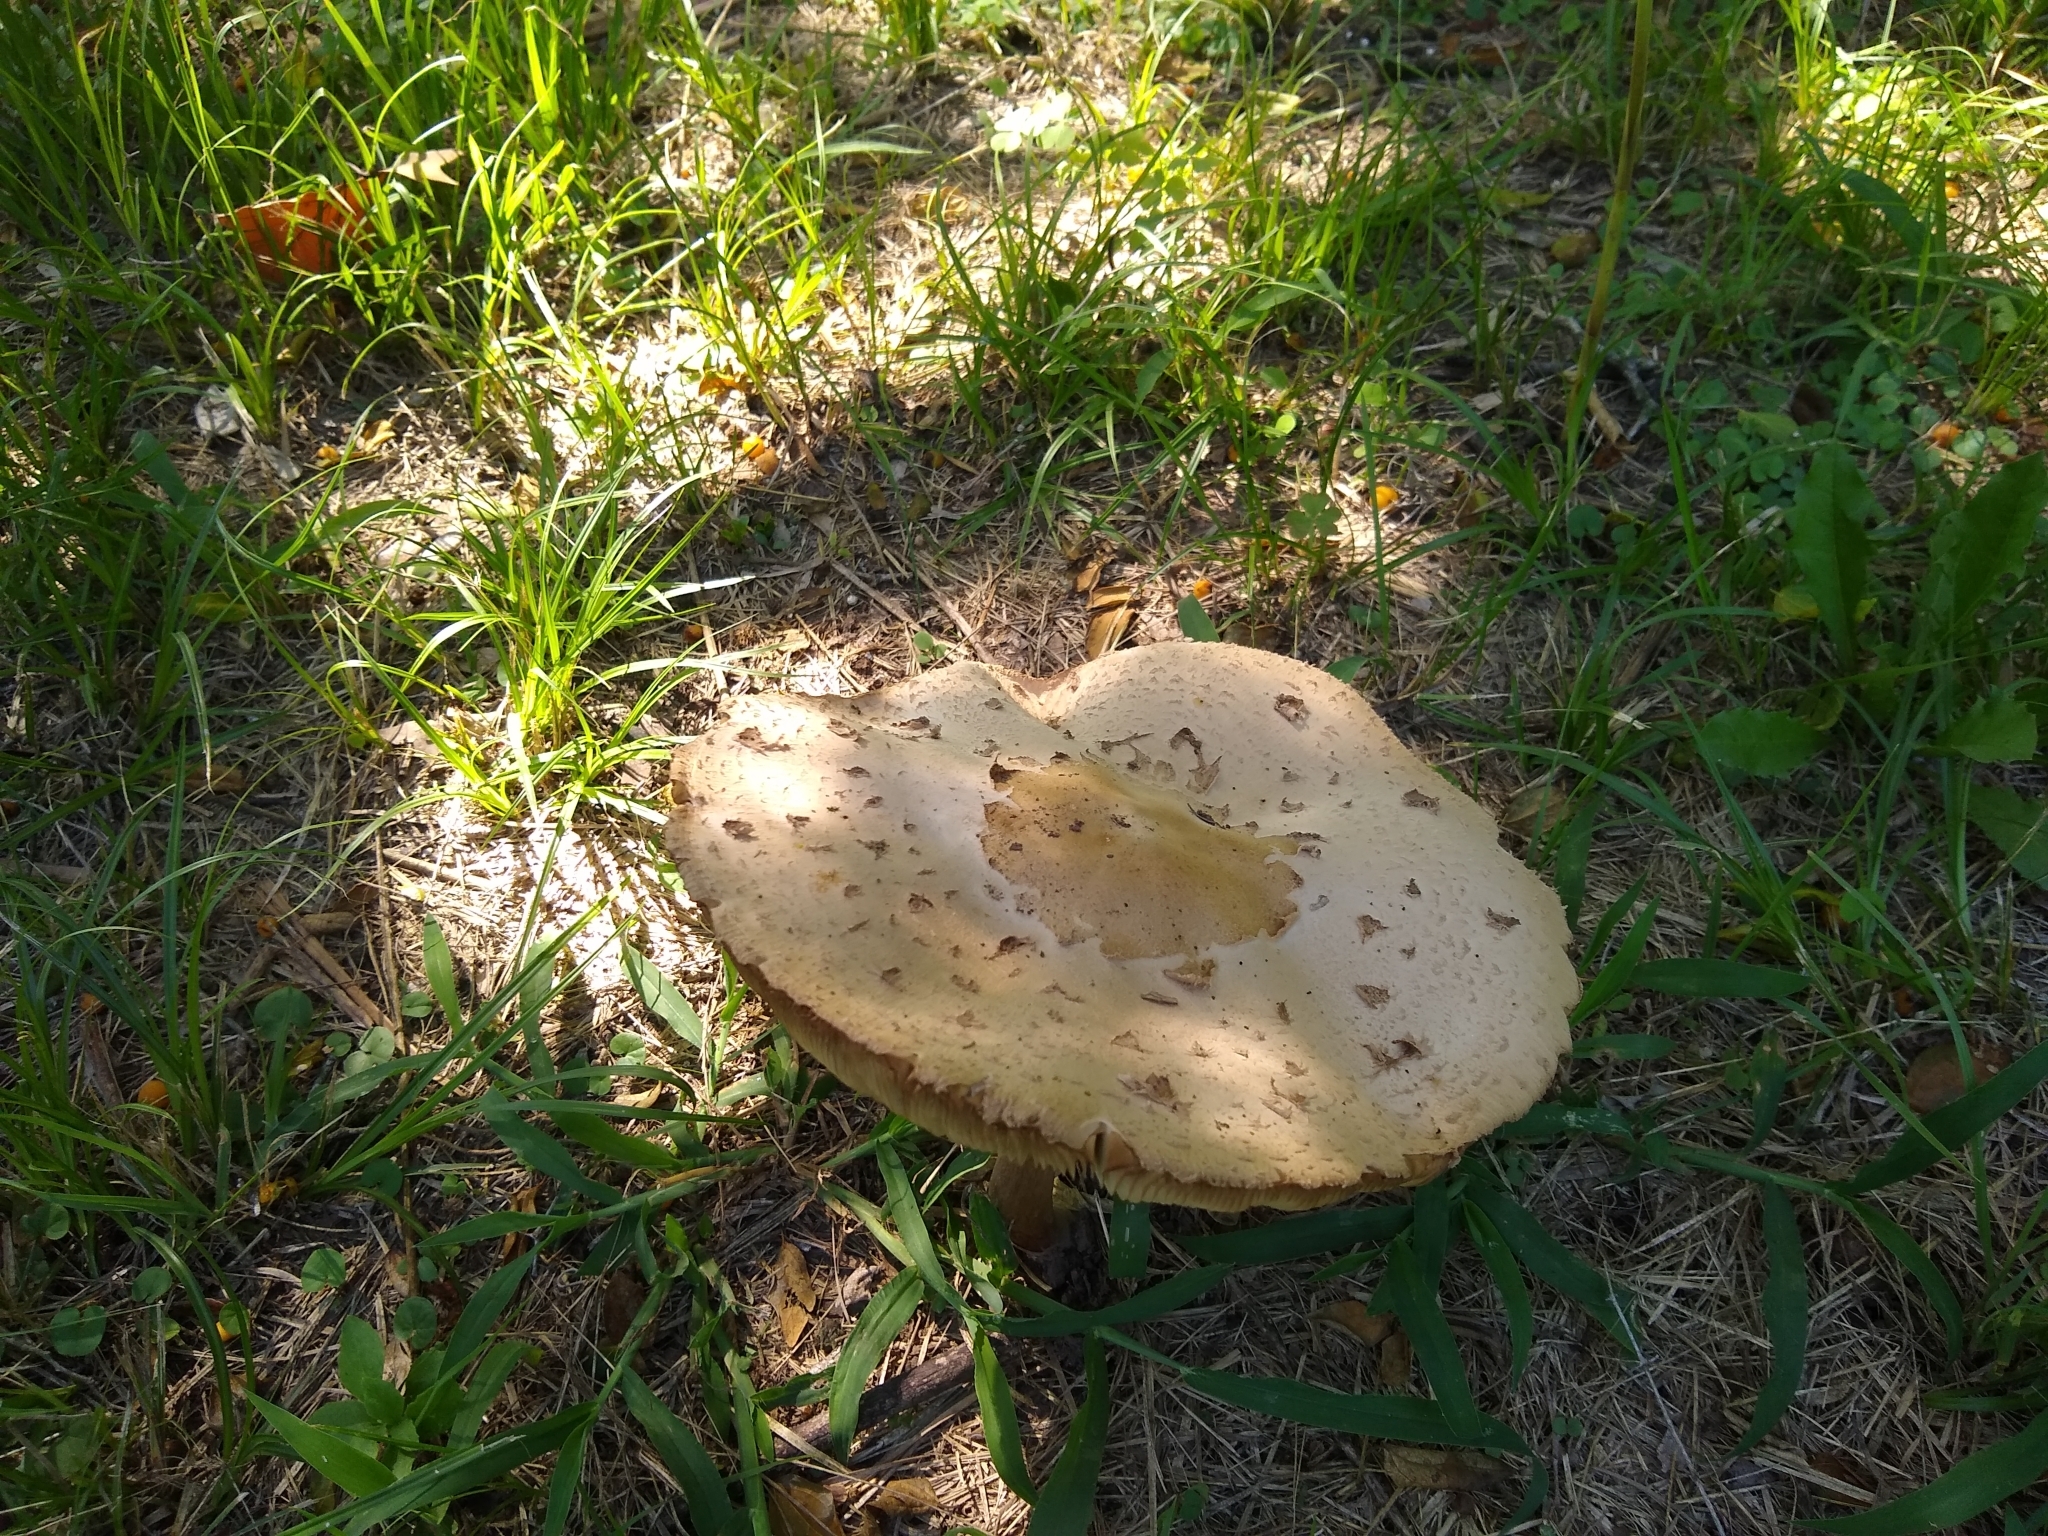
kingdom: Fungi
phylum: Basidiomycota
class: Agaricomycetes
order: Agaricales
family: Agaricaceae
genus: Chlorophyllum
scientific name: Chlorophyllum molybdites
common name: False parasol
